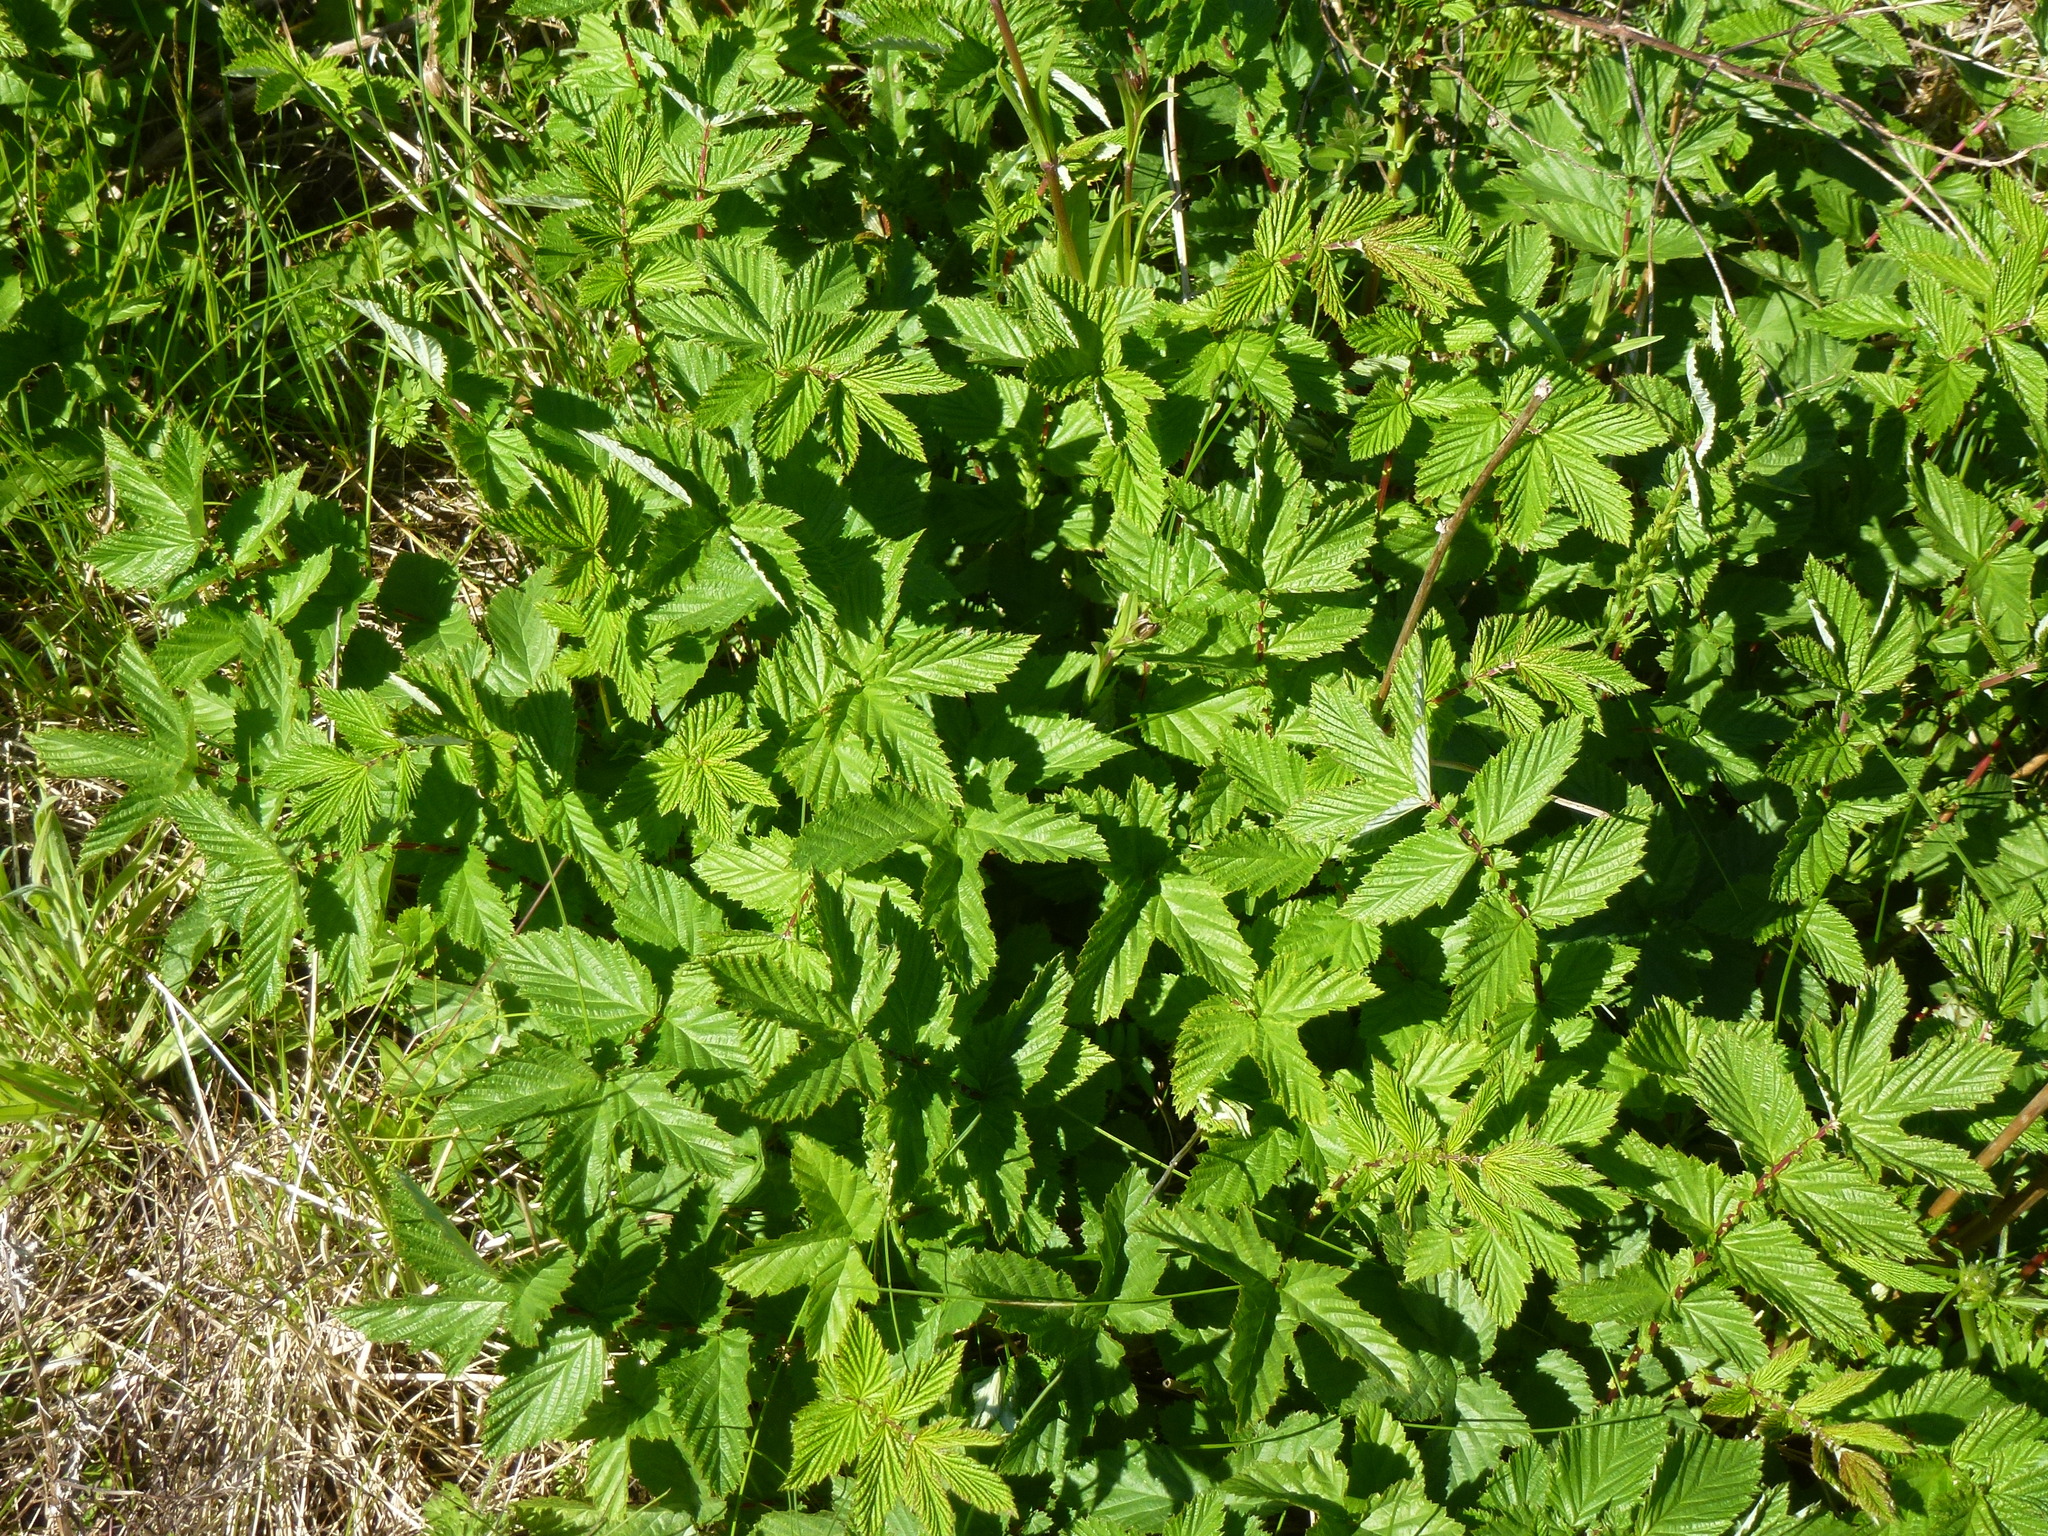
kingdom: Plantae
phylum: Tracheophyta
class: Magnoliopsida
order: Rosales
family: Rosaceae
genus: Filipendula
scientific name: Filipendula ulmaria
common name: Meadowsweet
